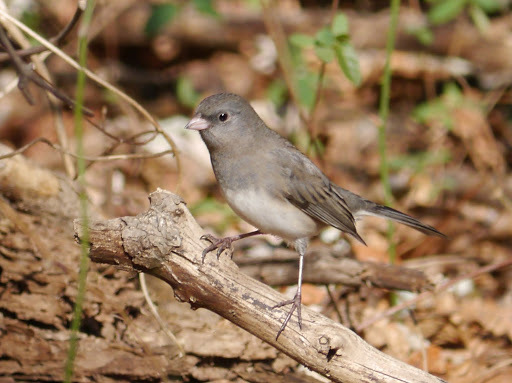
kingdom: Animalia
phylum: Chordata
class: Aves
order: Passeriformes
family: Passerellidae
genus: Junco
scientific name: Junco hyemalis
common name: Dark-eyed junco
